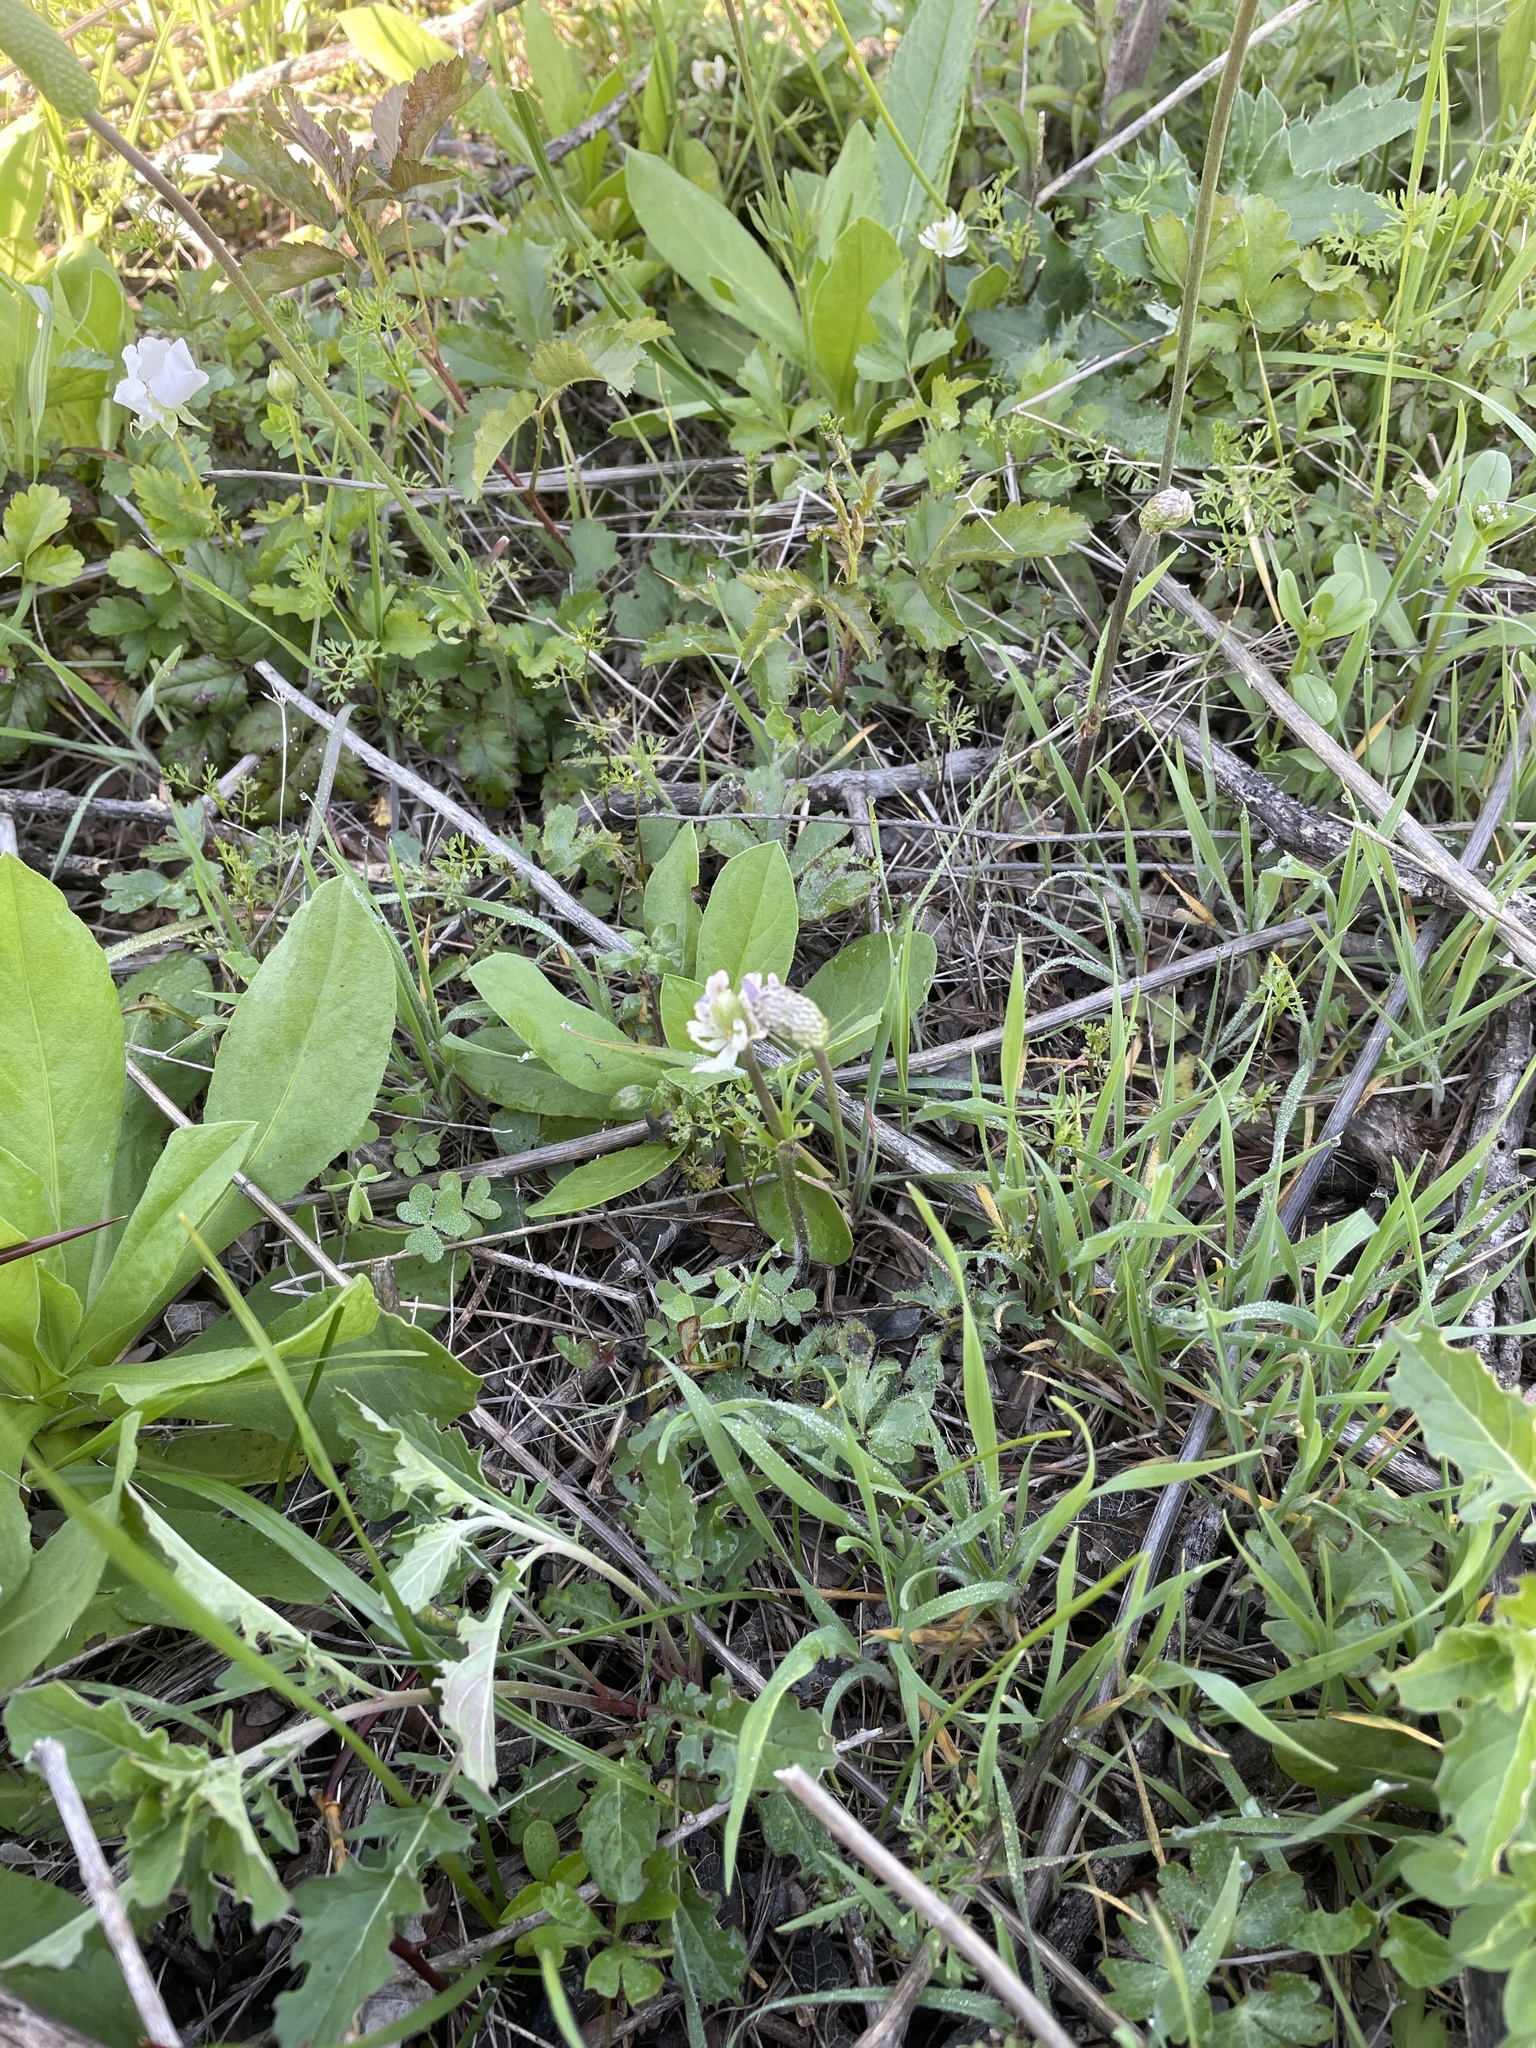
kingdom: Plantae
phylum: Tracheophyta
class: Magnoliopsida
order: Ranunculales
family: Ranunculaceae
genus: Anemone
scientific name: Anemone berlandieri
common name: Ten-petal anemone
